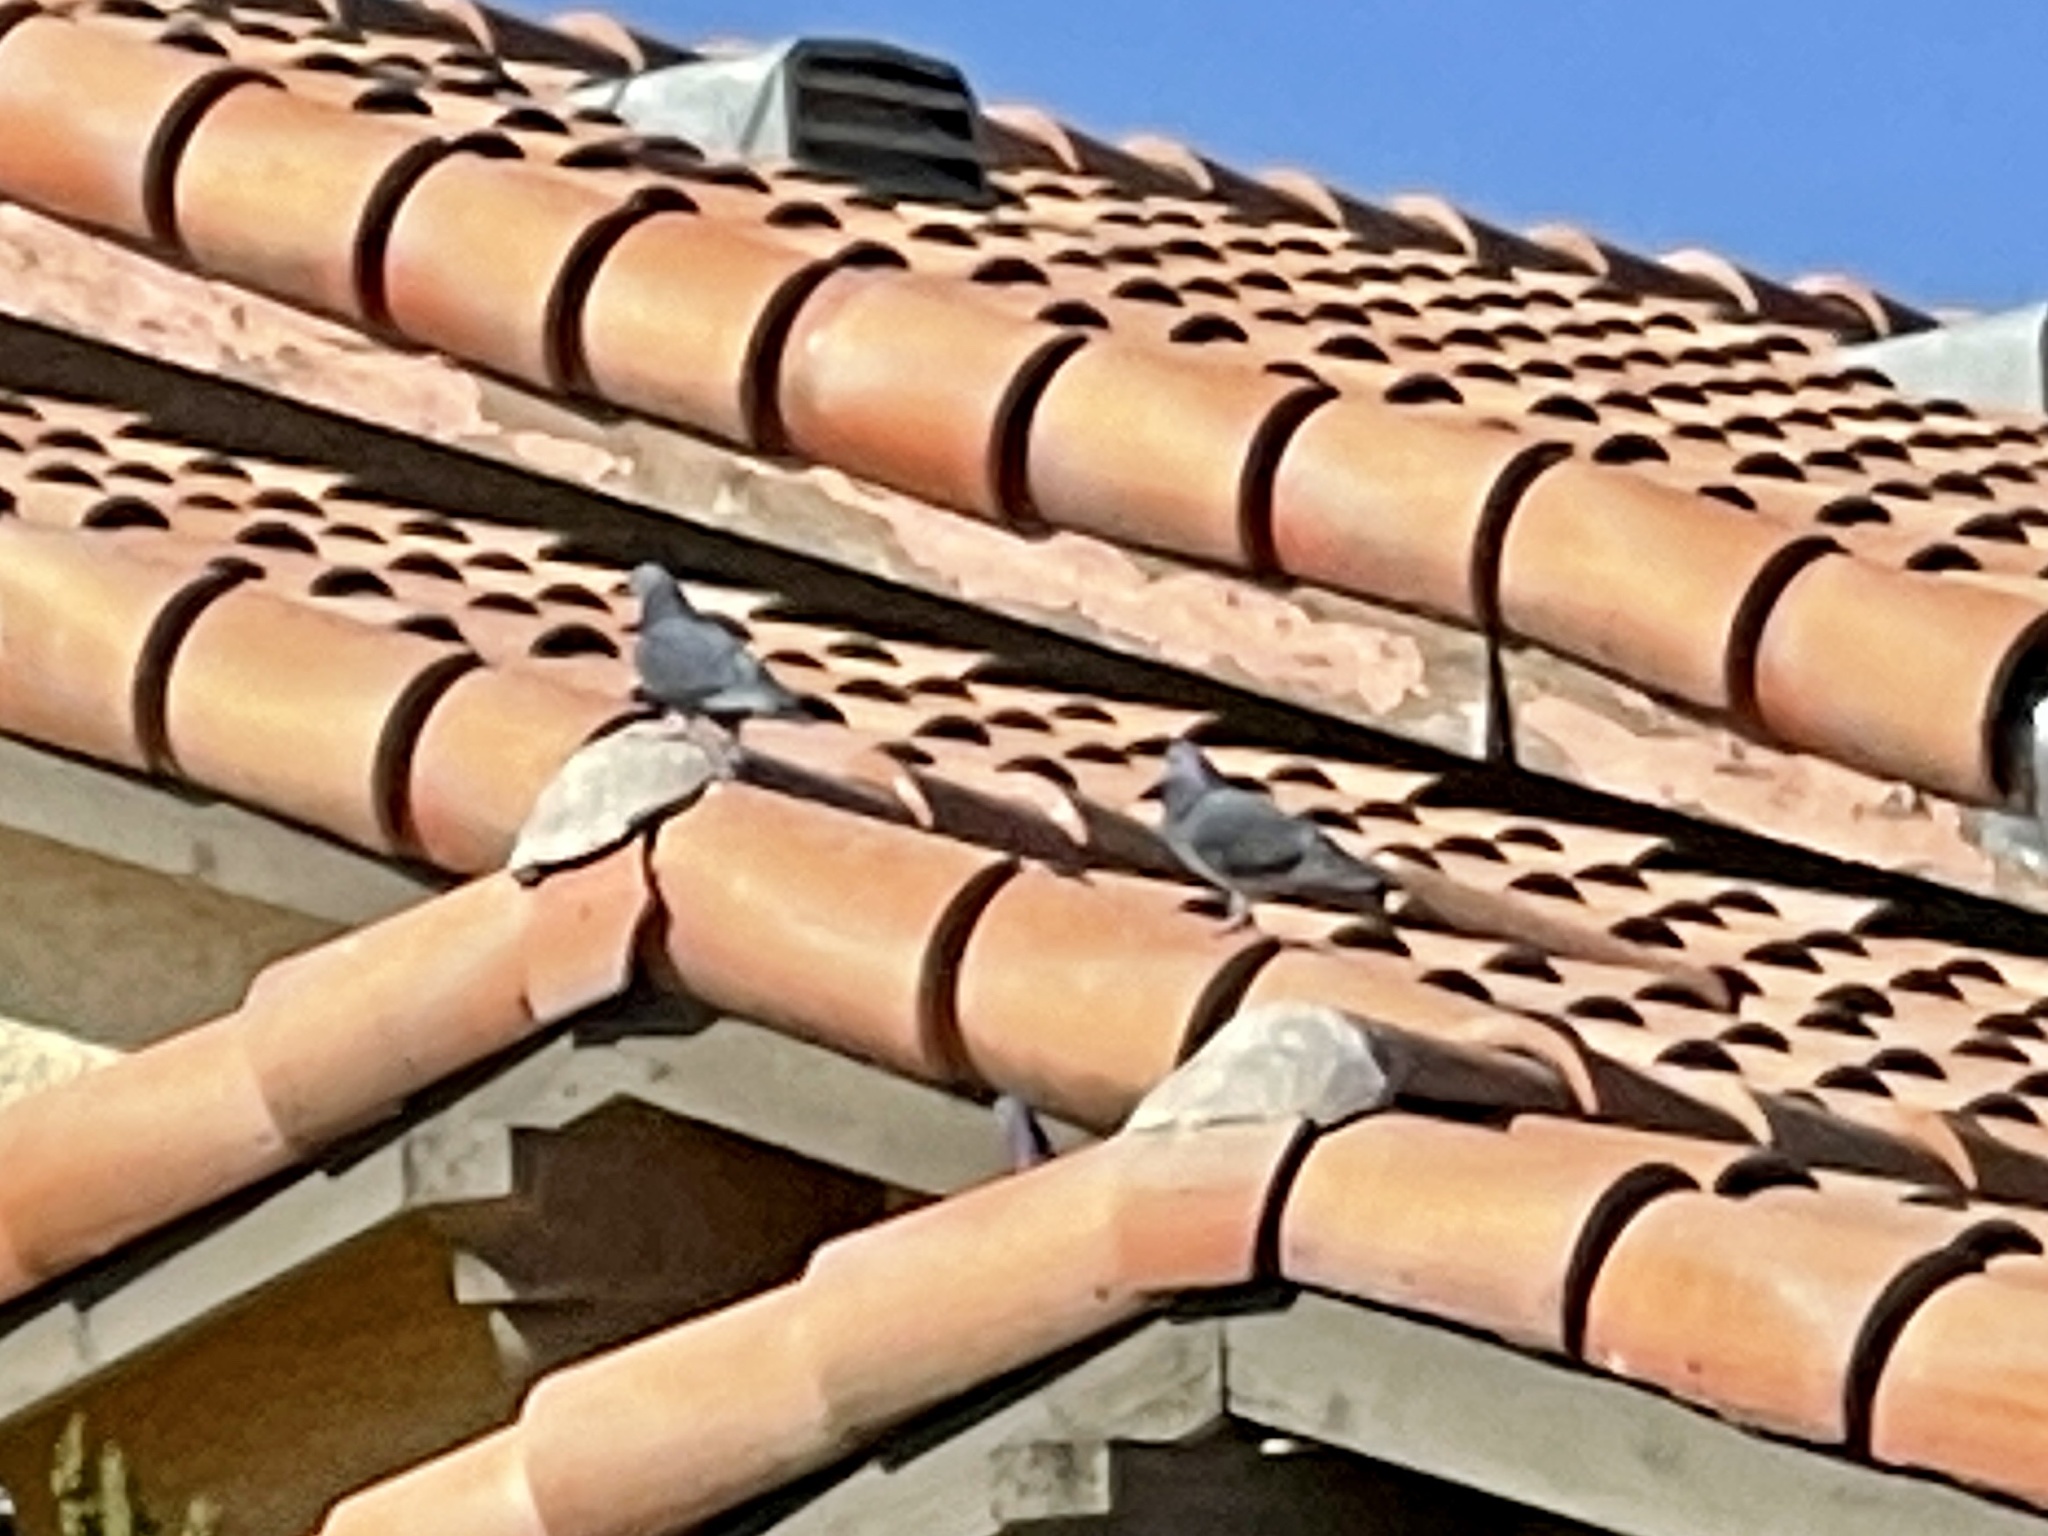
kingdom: Animalia
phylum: Chordata
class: Aves
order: Columbiformes
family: Columbidae
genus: Columba
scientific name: Columba livia
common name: Rock pigeon
